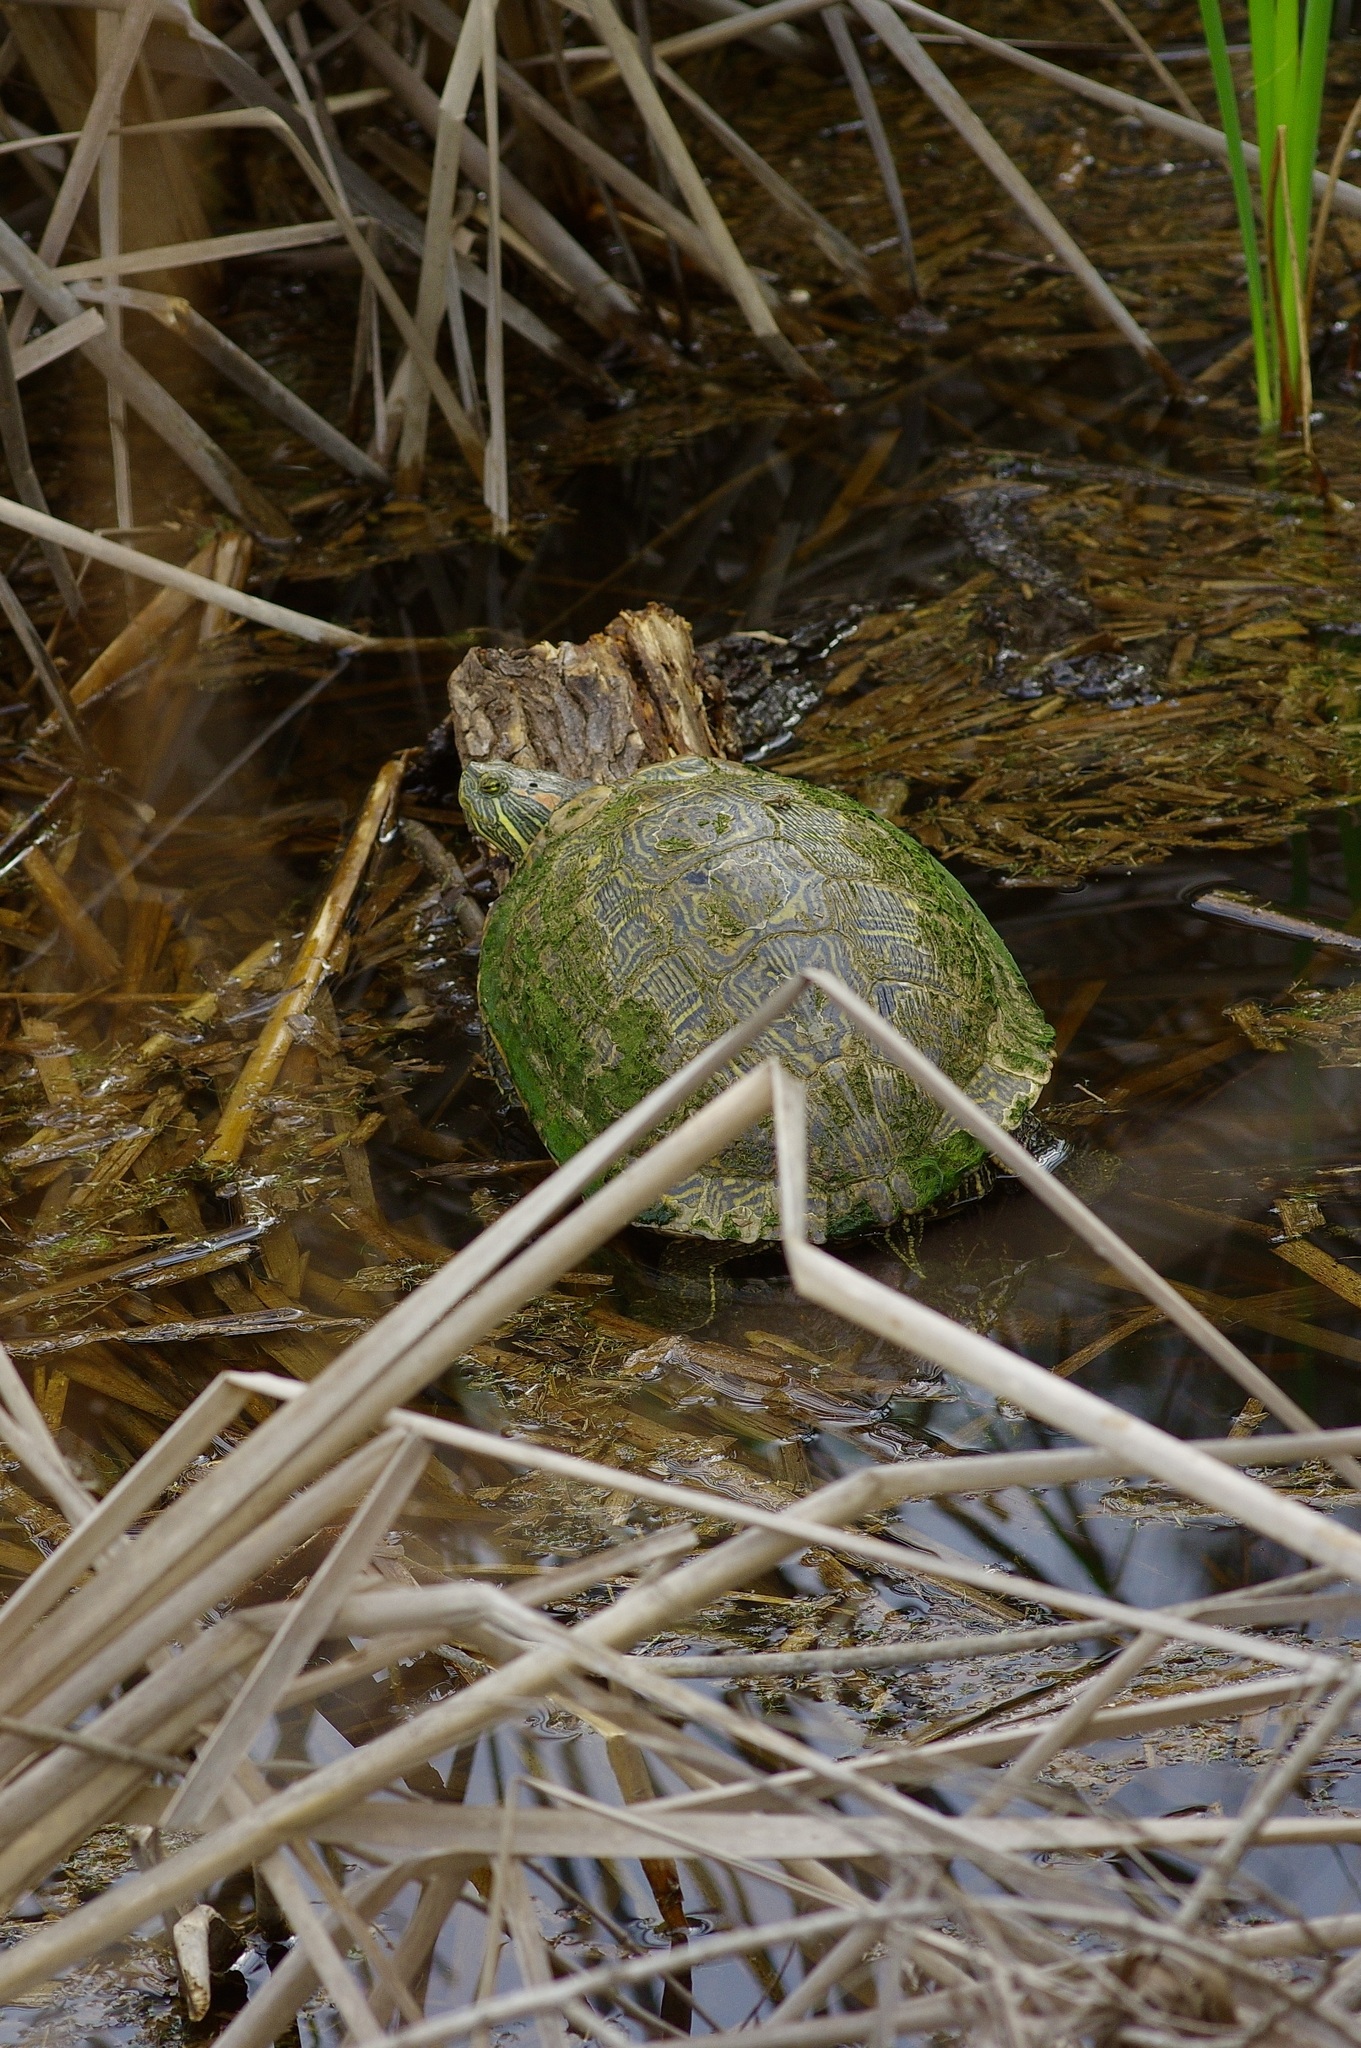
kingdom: Animalia
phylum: Chordata
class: Testudines
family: Emydidae
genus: Trachemys
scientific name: Trachemys scripta
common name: Slider
